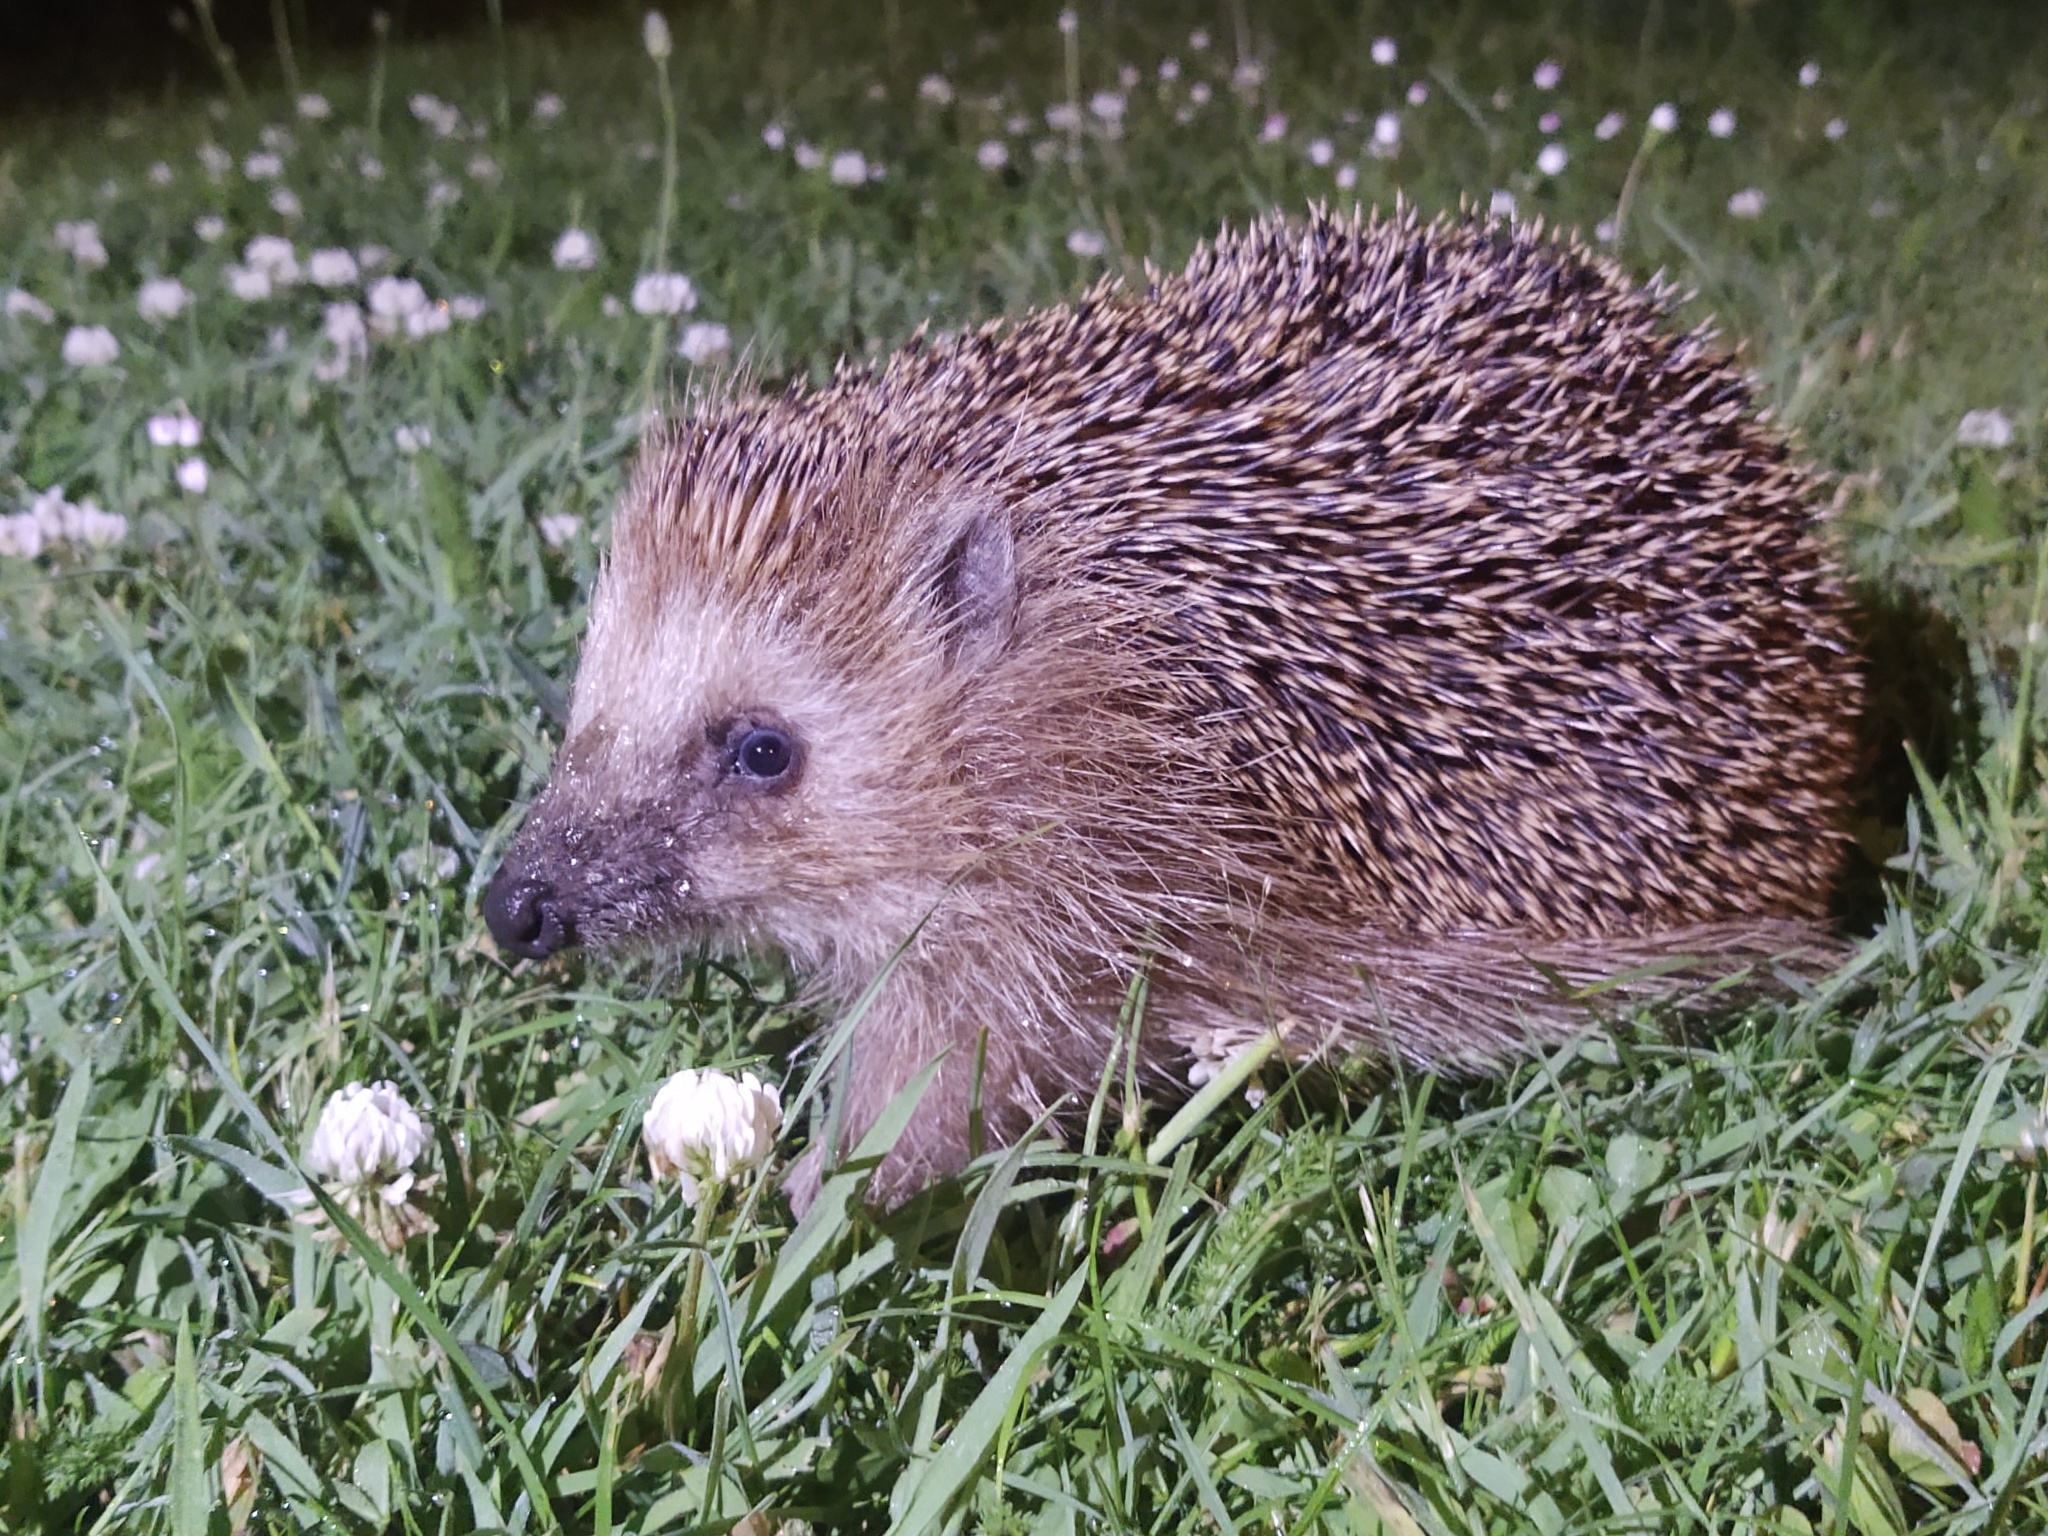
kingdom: Animalia
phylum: Chordata
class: Mammalia
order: Erinaceomorpha
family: Erinaceidae
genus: Erinaceus
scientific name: Erinaceus europaeus
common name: West european hedgehog
